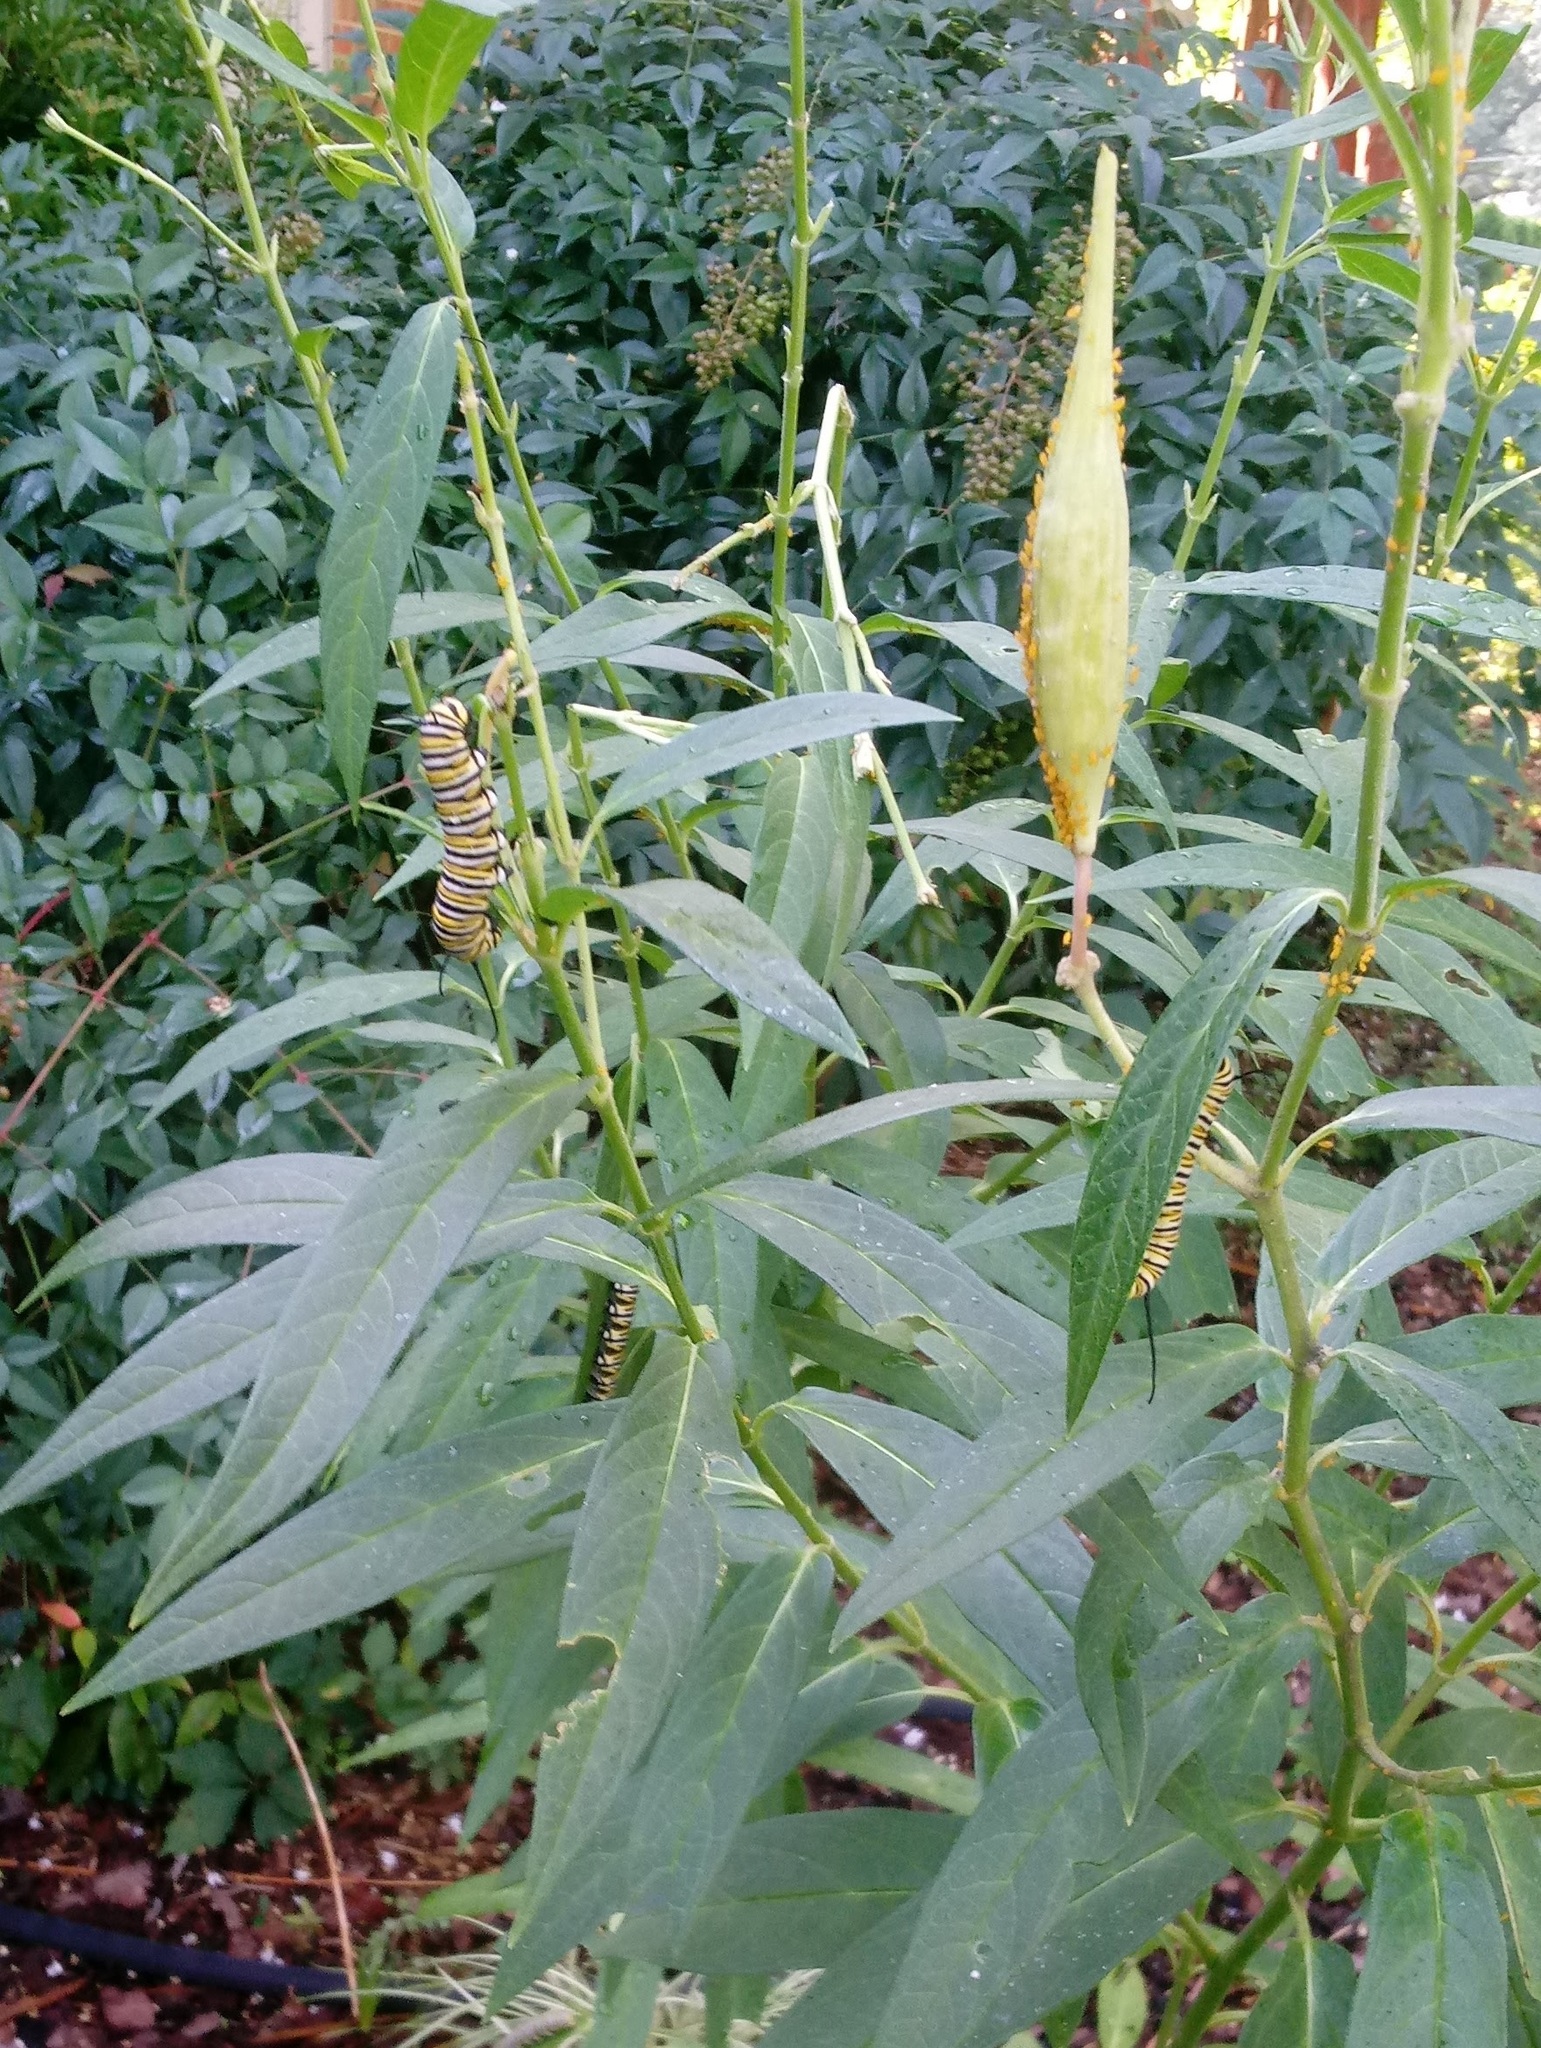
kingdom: Animalia
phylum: Arthropoda
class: Insecta
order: Lepidoptera
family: Nymphalidae
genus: Danaus
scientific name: Danaus plexippus
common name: Monarch
